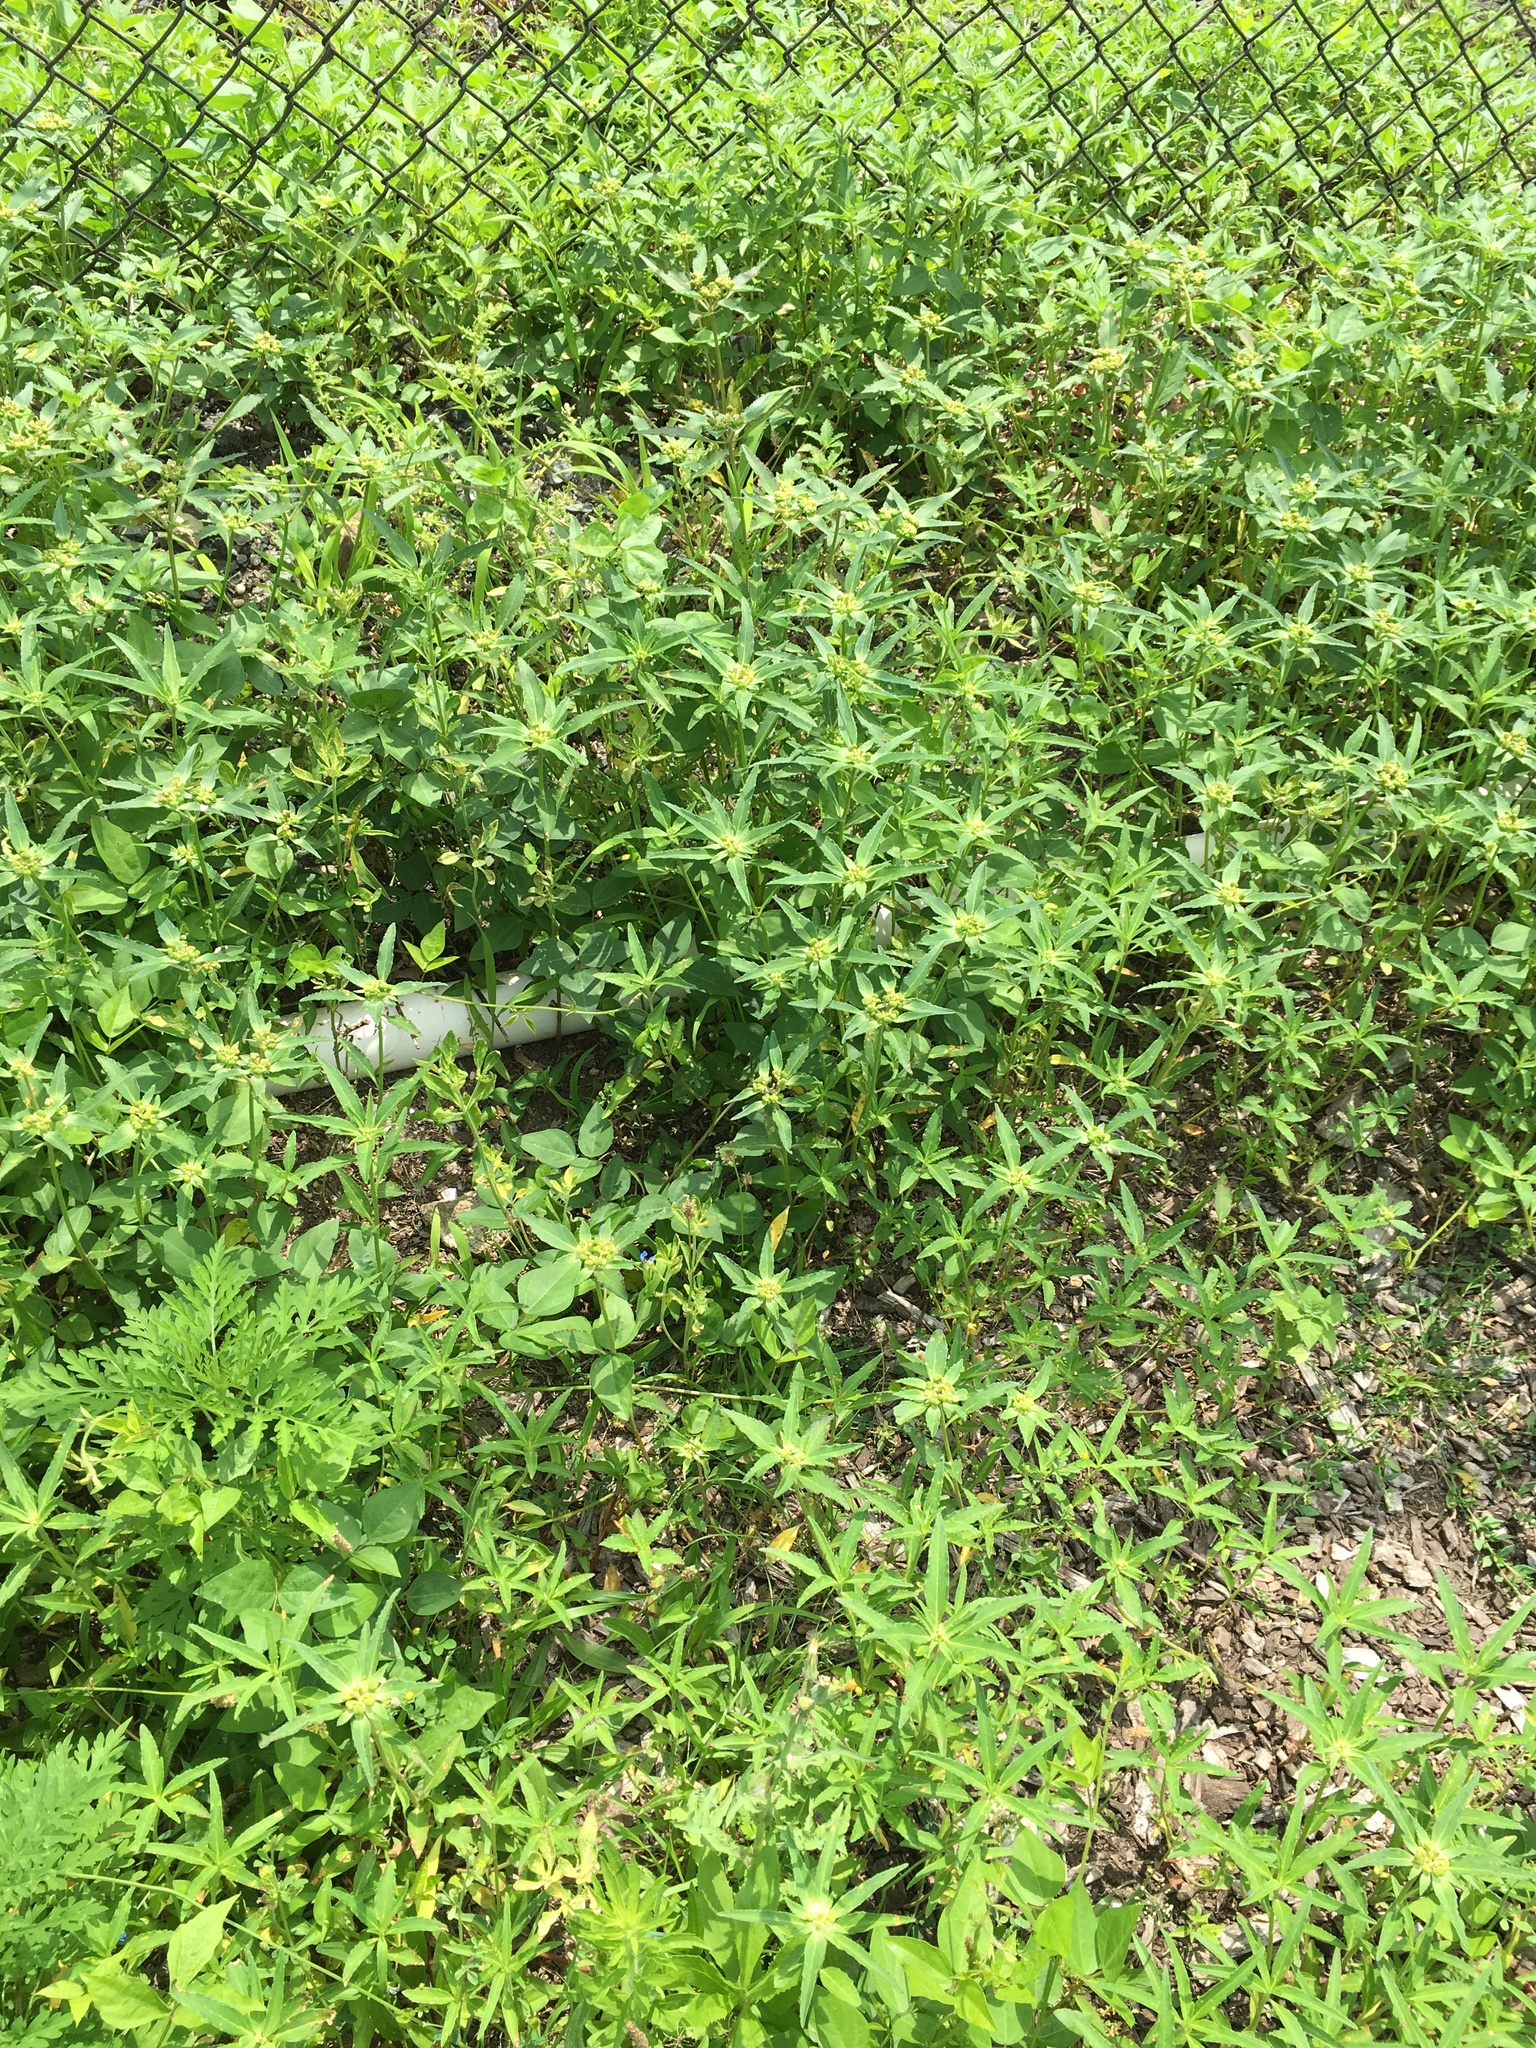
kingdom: Plantae
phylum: Tracheophyta
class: Magnoliopsida
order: Malpighiales
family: Euphorbiaceae
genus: Euphorbia
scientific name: Euphorbia davidii
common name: David's spurge
